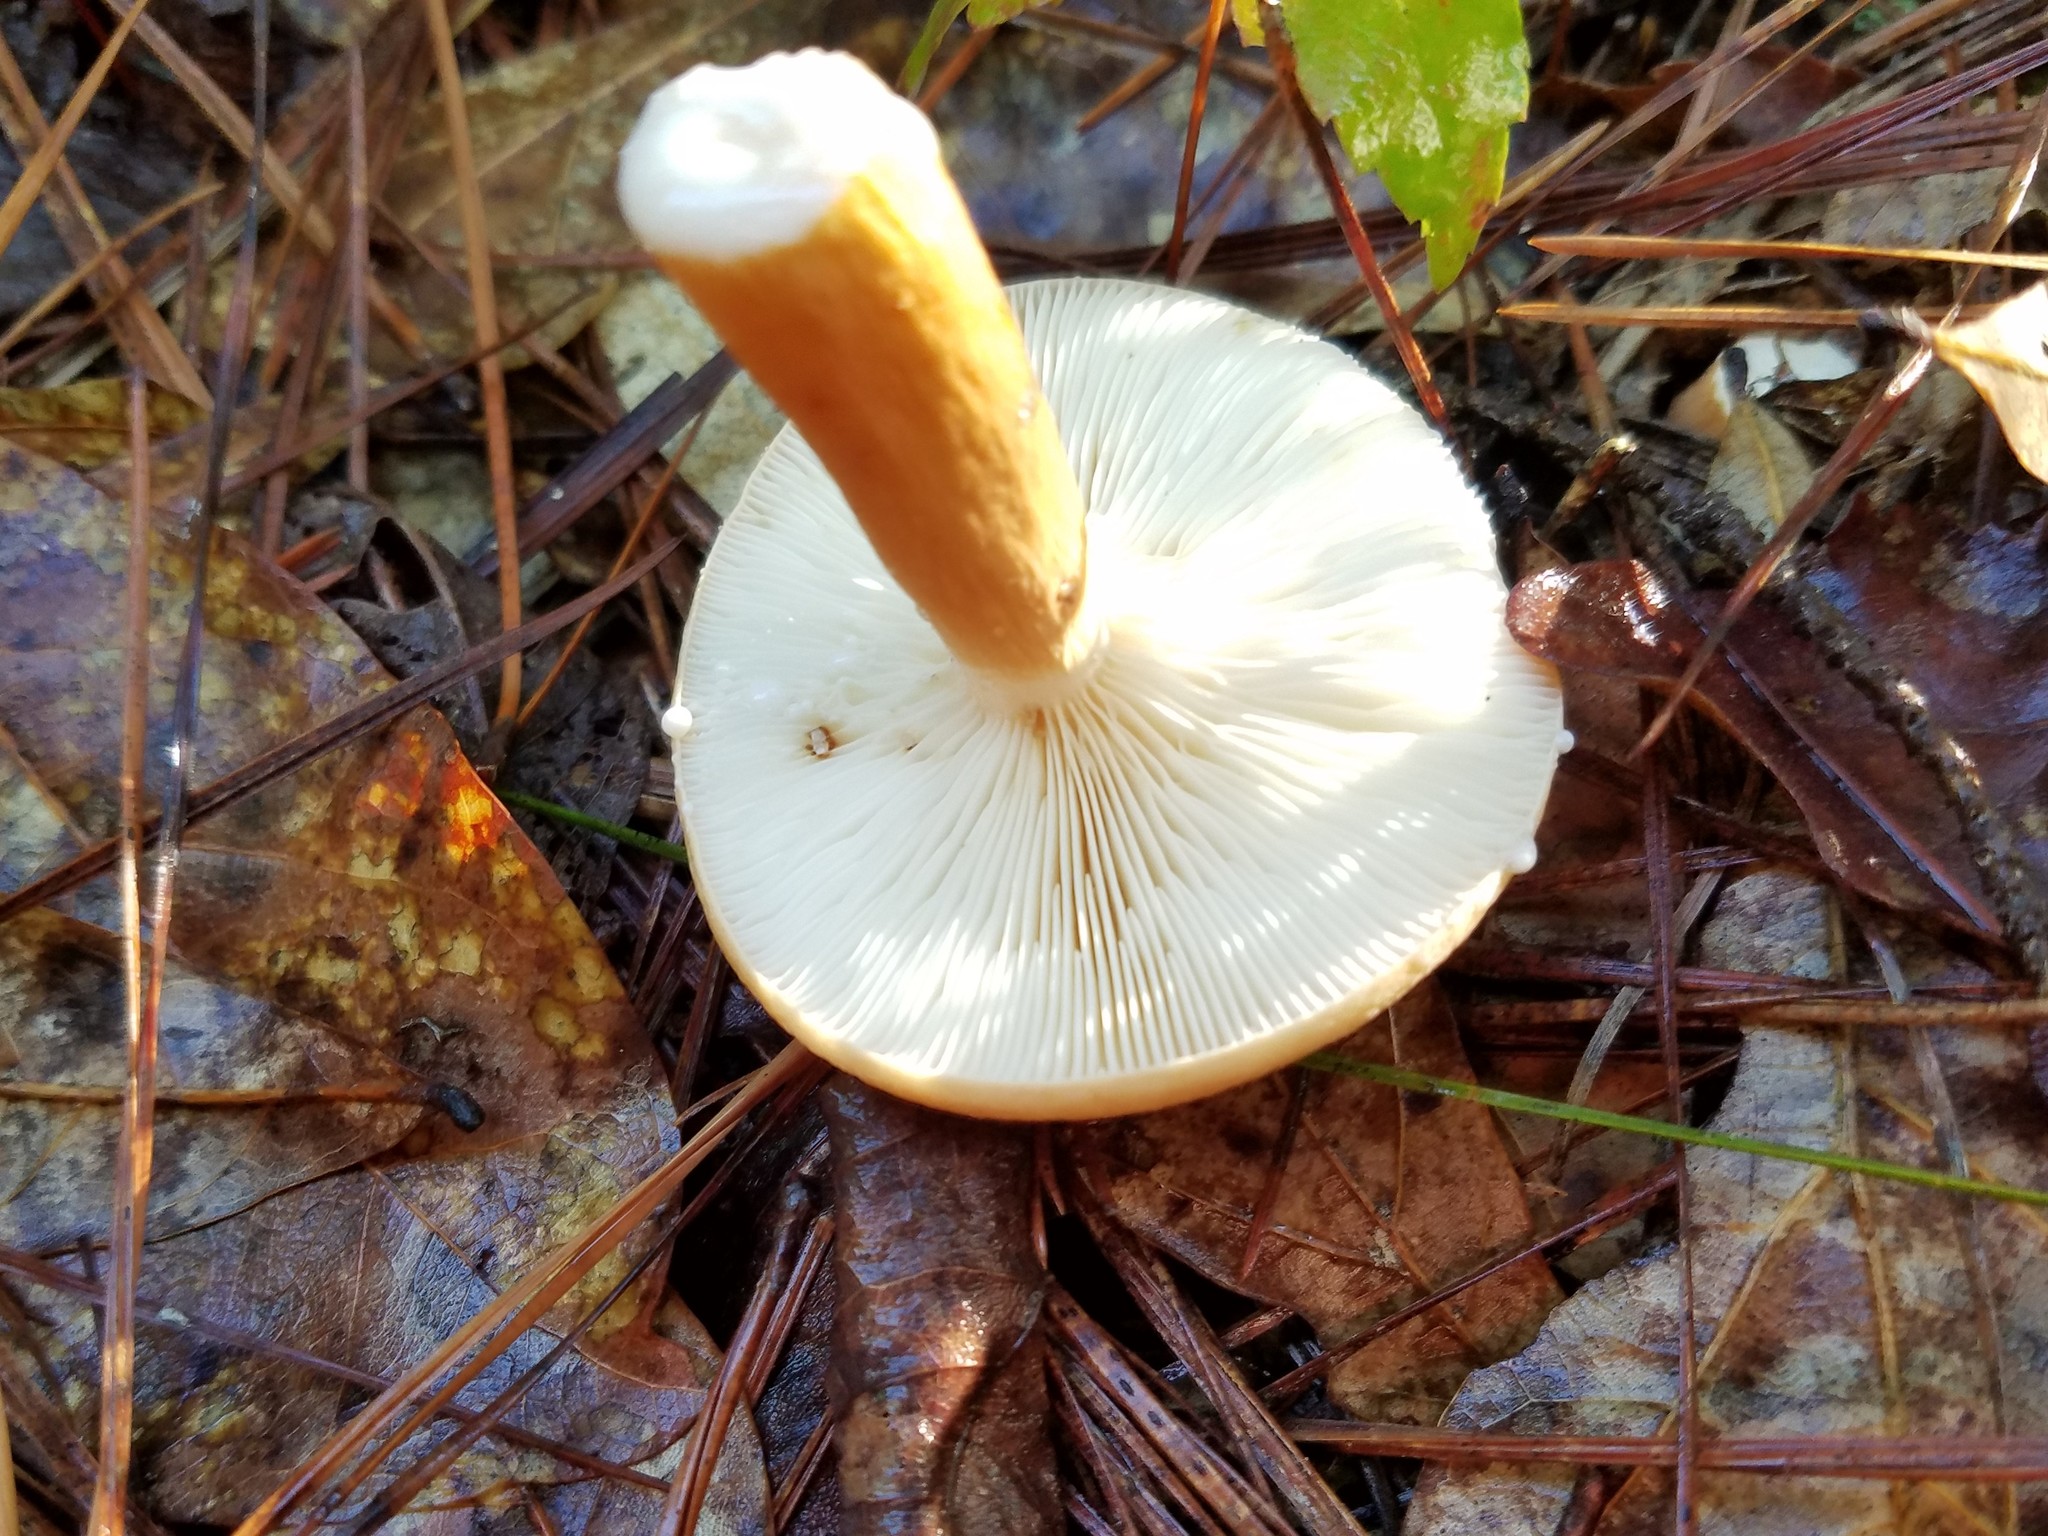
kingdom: Fungi
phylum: Basidiomycota
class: Agaricomycetes
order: Russulales
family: Russulaceae
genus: Lactifluus
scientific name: Lactifluus volemus
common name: Fishy milkcap
